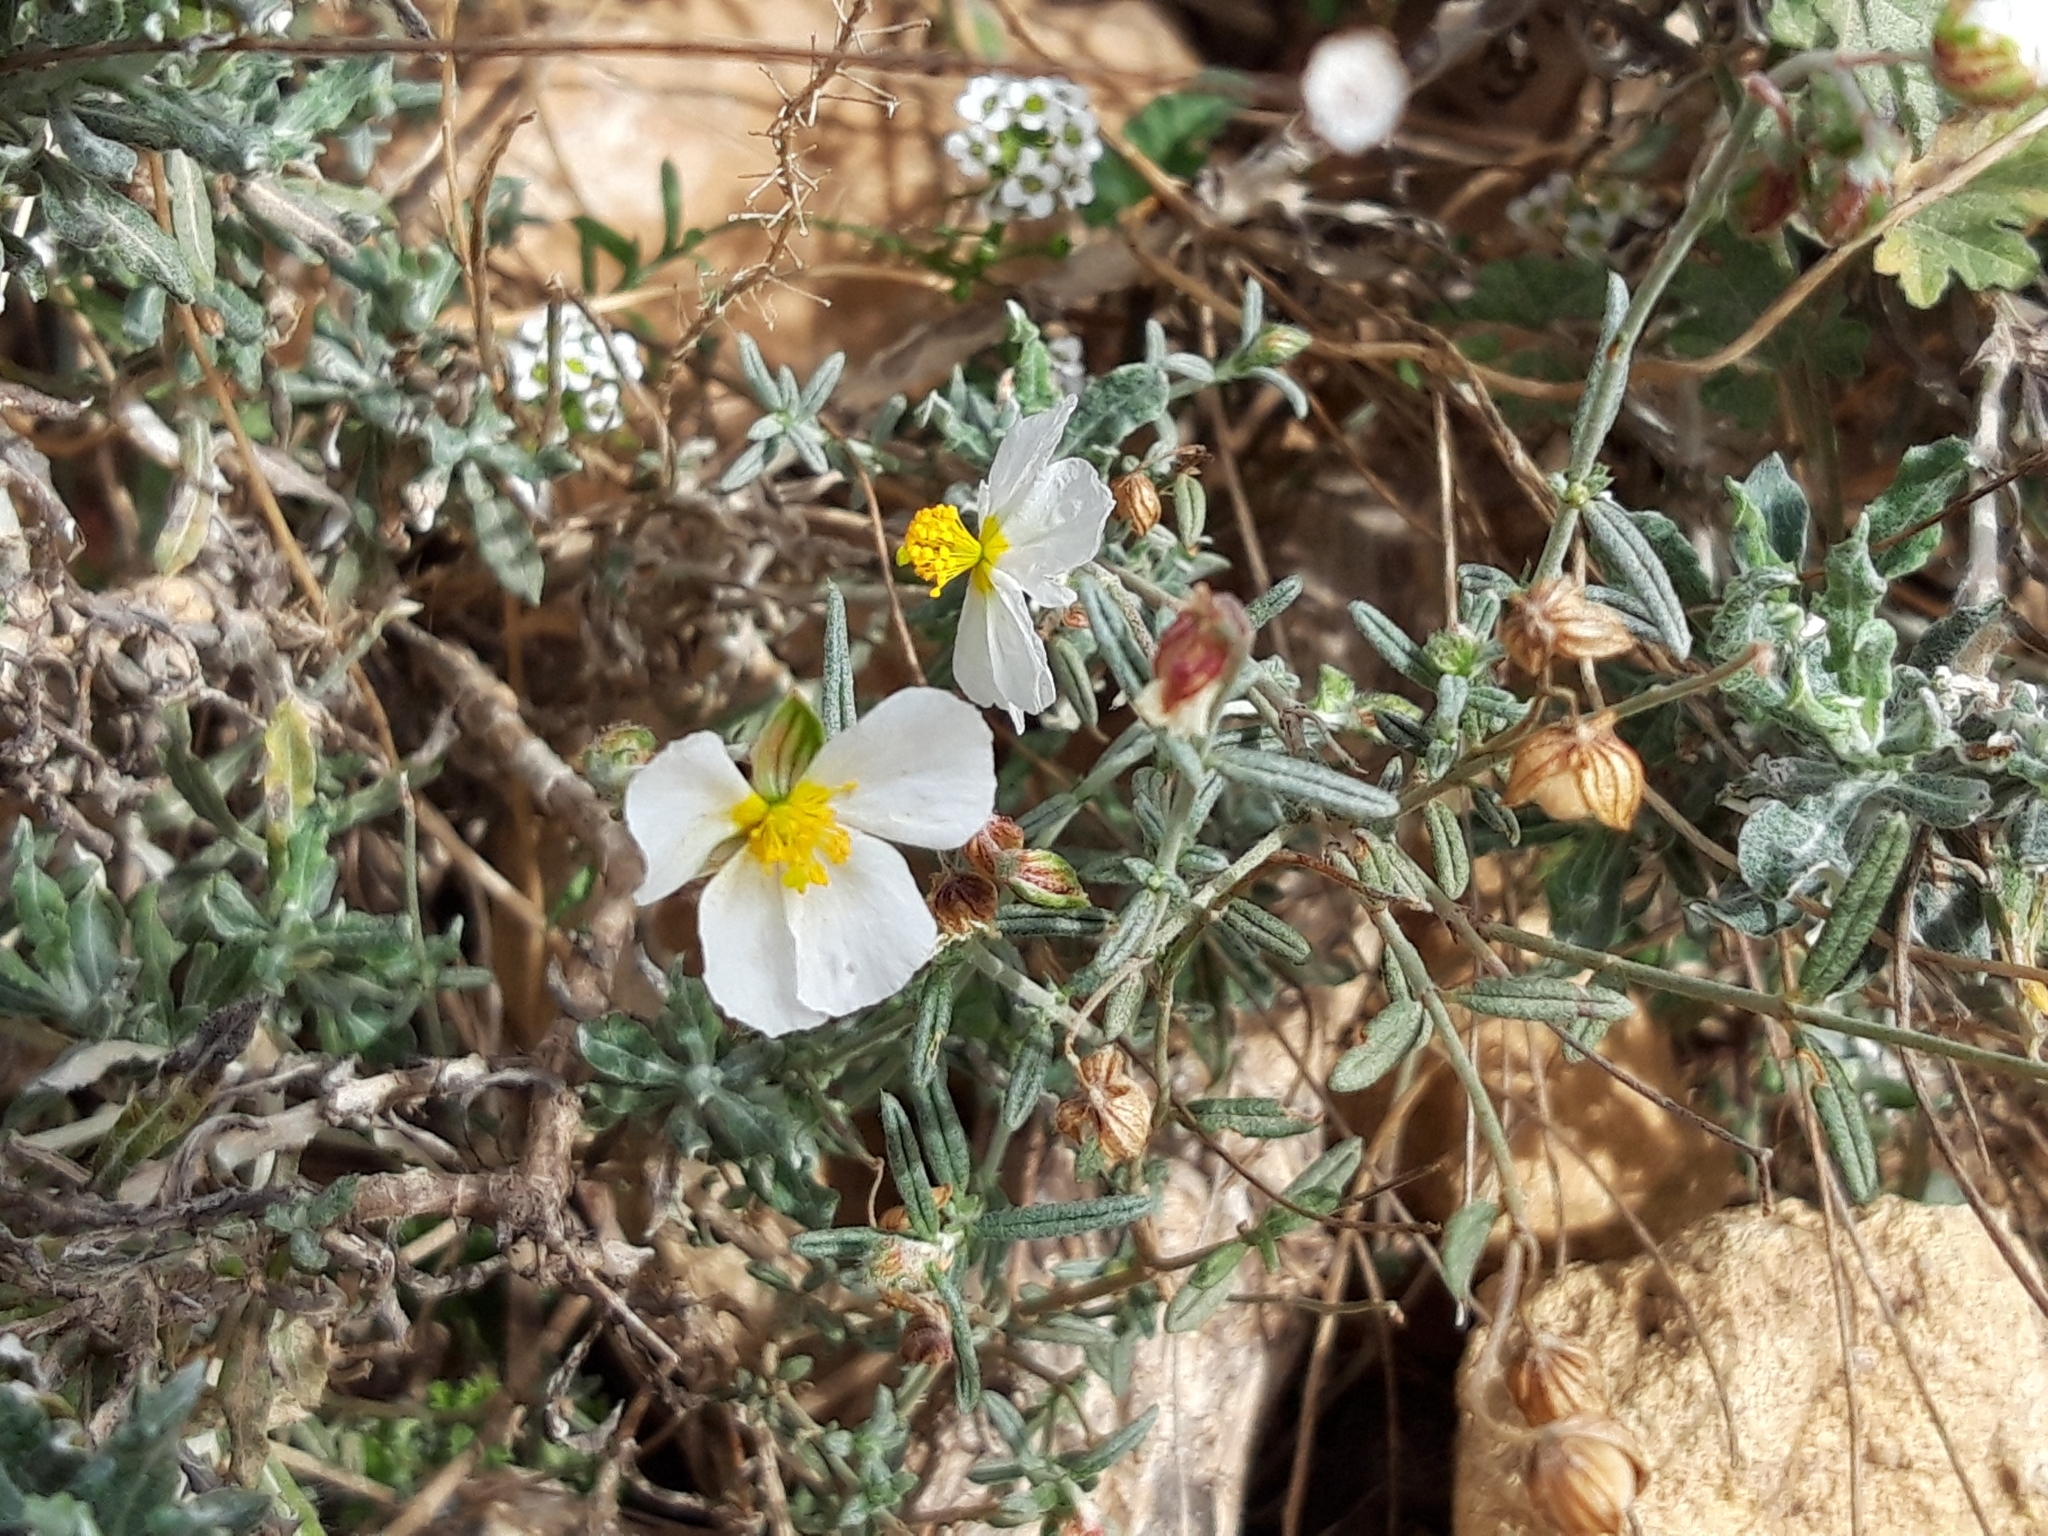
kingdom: Plantae
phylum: Tracheophyta
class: Magnoliopsida
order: Malvales
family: Cistaceae
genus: Helianthemum
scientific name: Helianthemum apenninum
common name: White rock-rose
